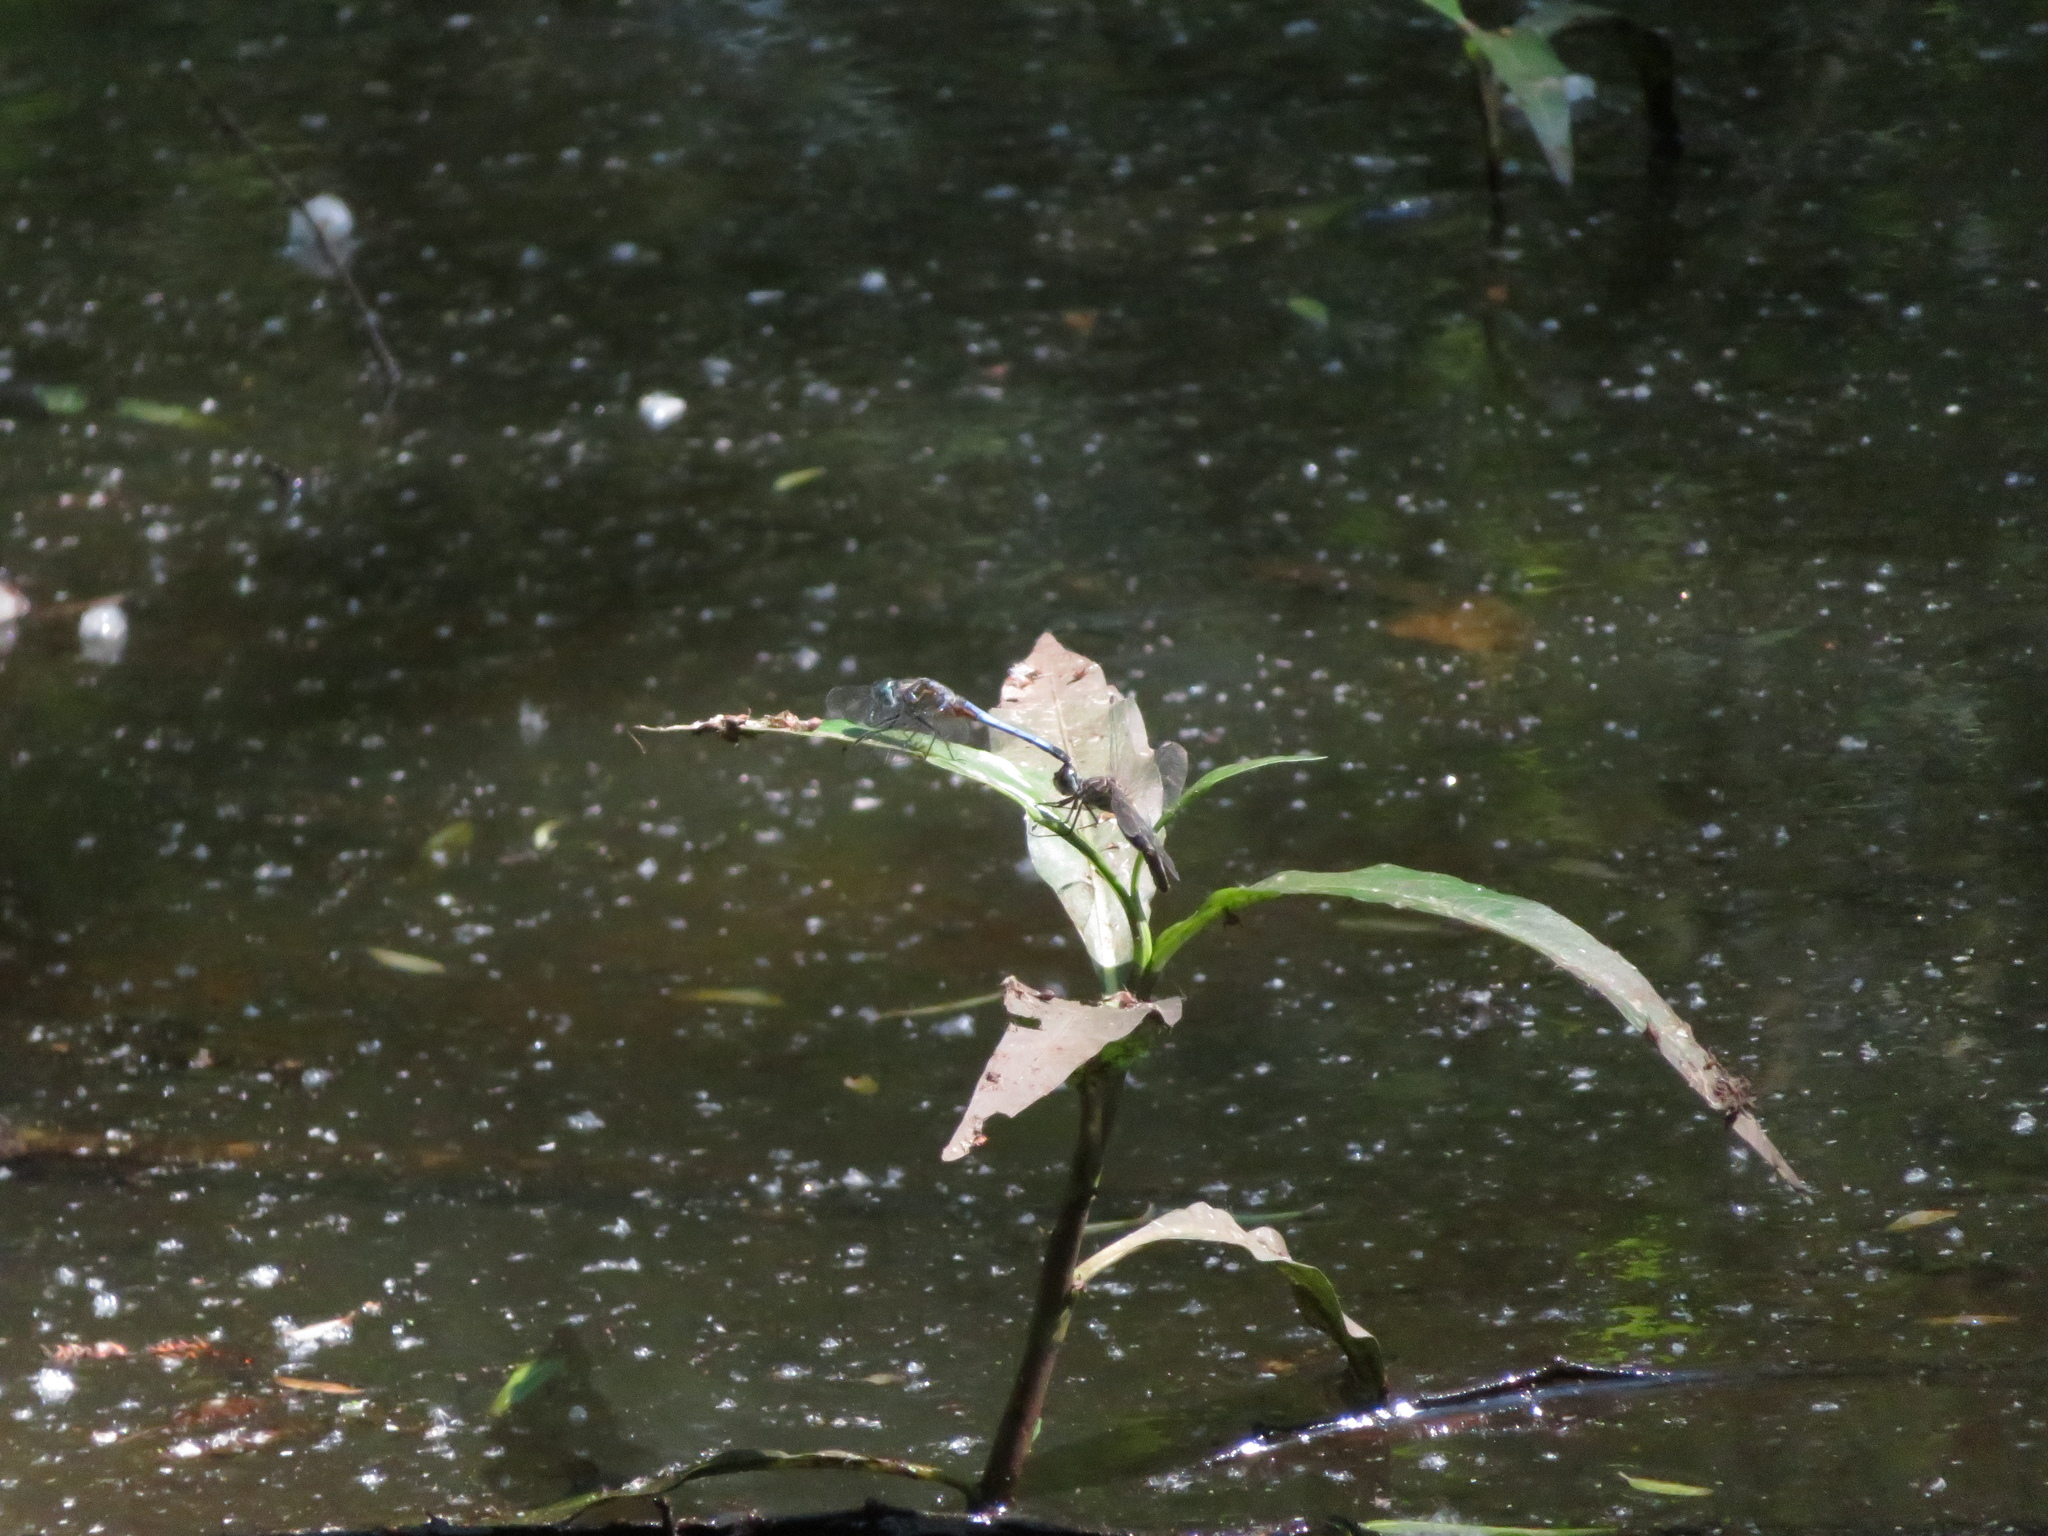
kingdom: Animalia
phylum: Arthropoda
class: Insecta
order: Odonata
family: Libellulidae
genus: Pachydiplax
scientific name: Pachydiplax longipennis
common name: Blue dasher
